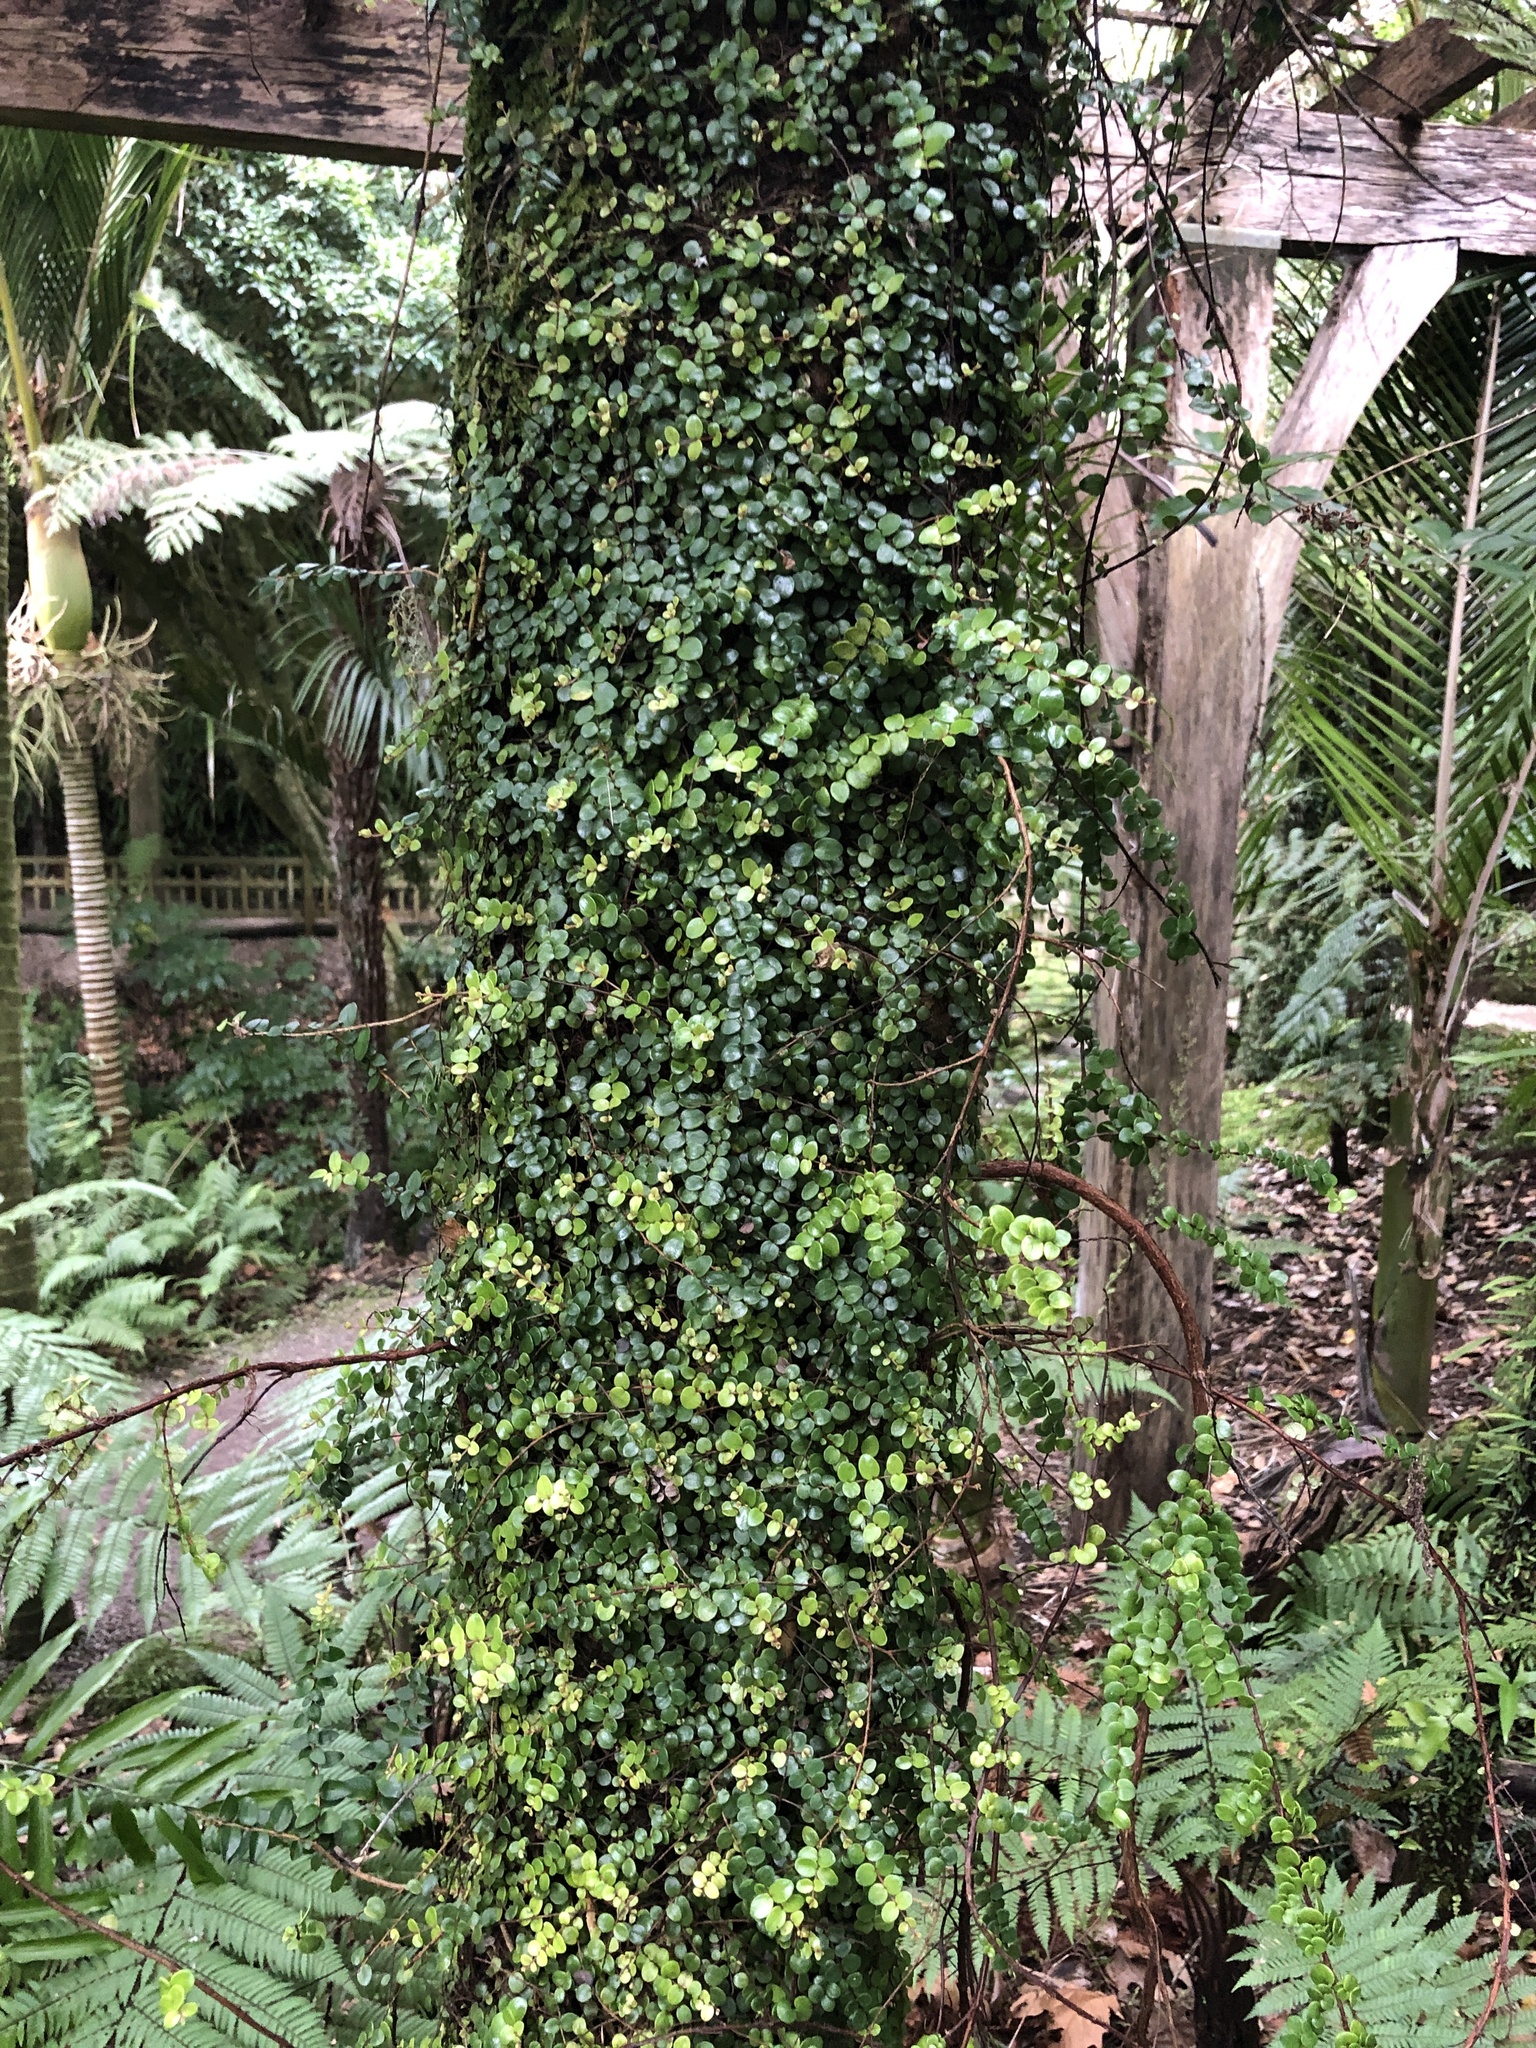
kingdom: Plantae
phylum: Tracheophyta
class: Magnoliopsida
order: Myrtales
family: Myrtaceae
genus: Metrosideros
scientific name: Metrosideros perforata
